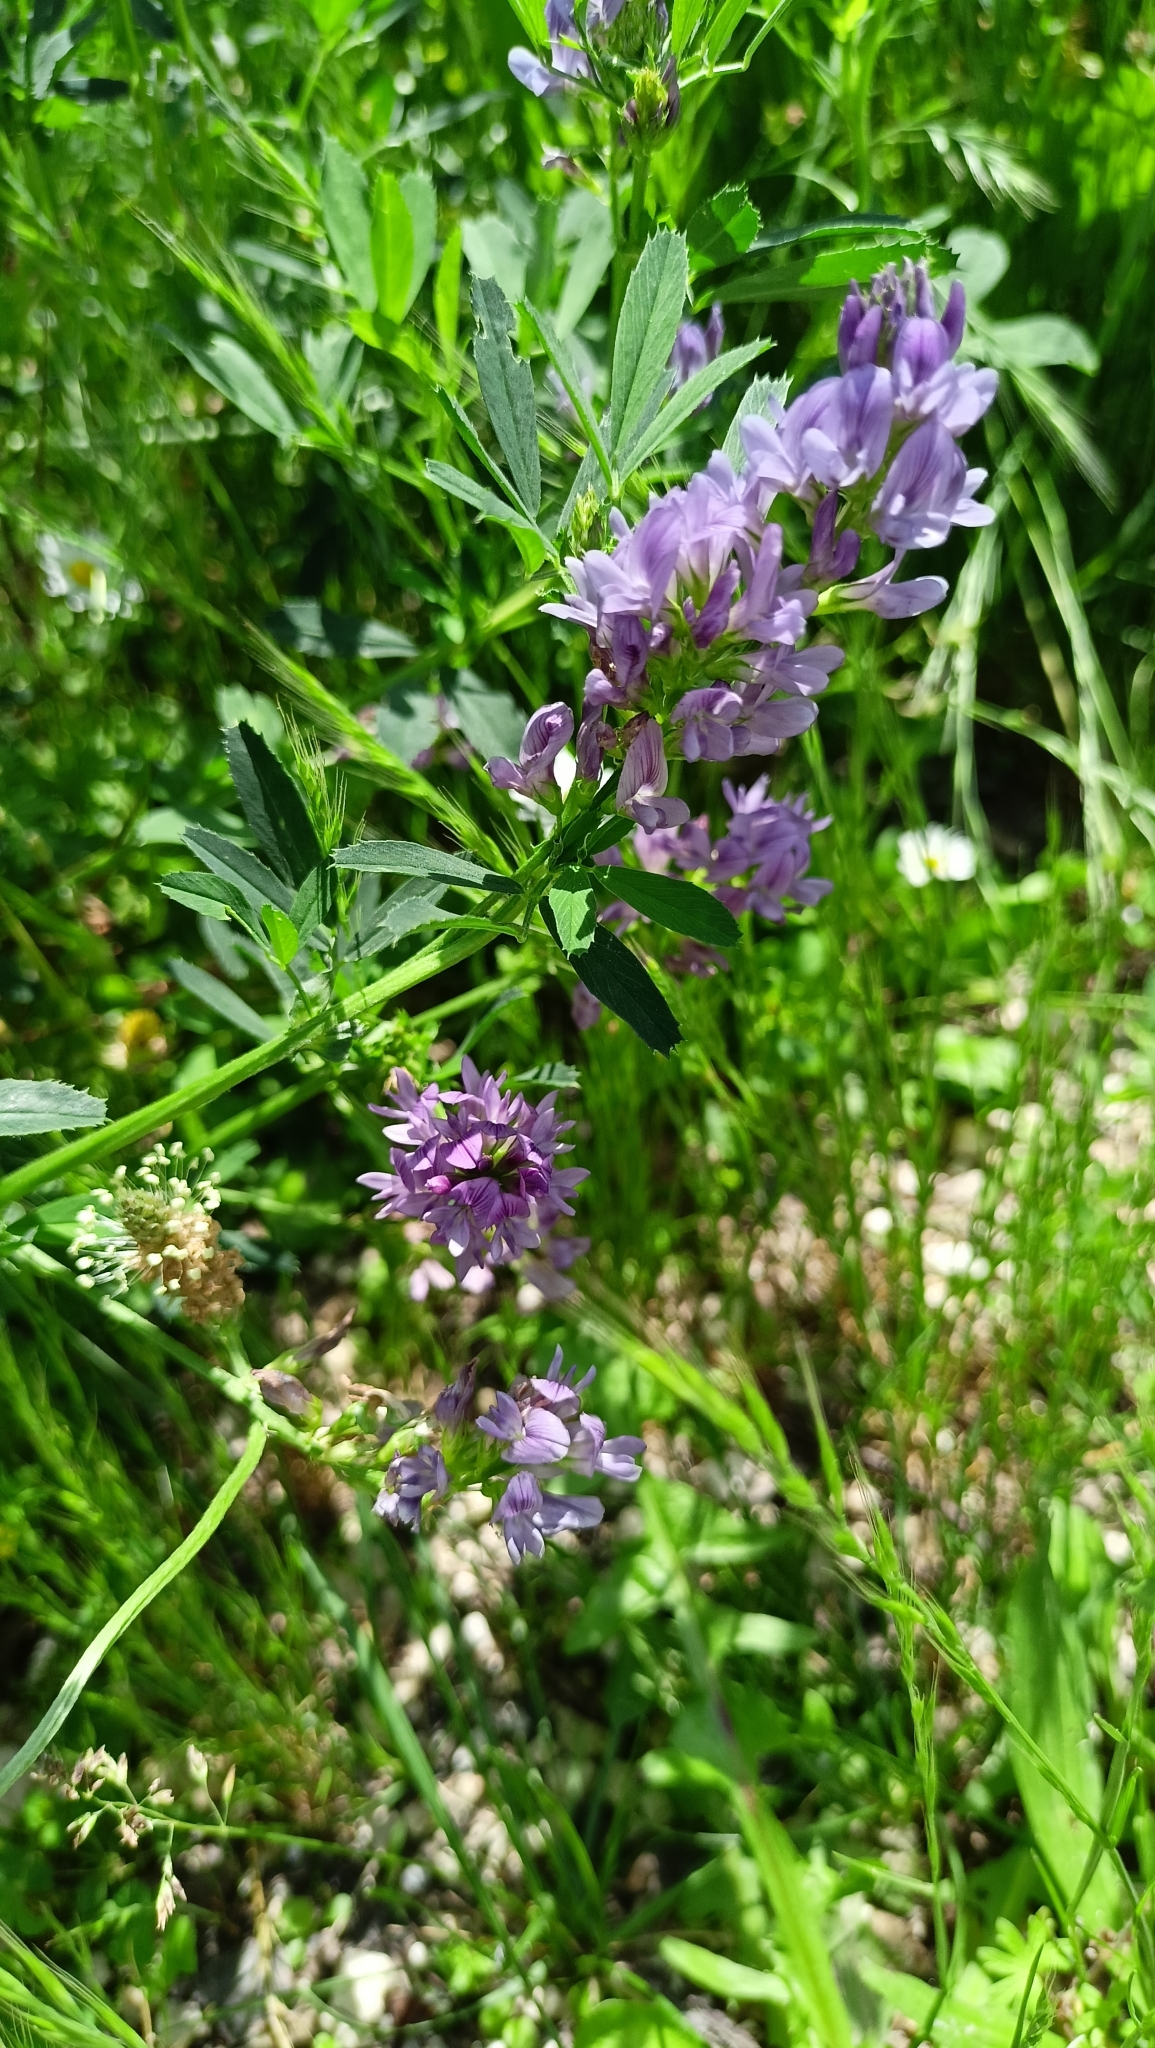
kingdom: Plantae
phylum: Tracheophyta
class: Magnoliopsida
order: Fabales
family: Fabaceae
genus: Medicago
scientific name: Medicago sativa
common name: Alfalfa
